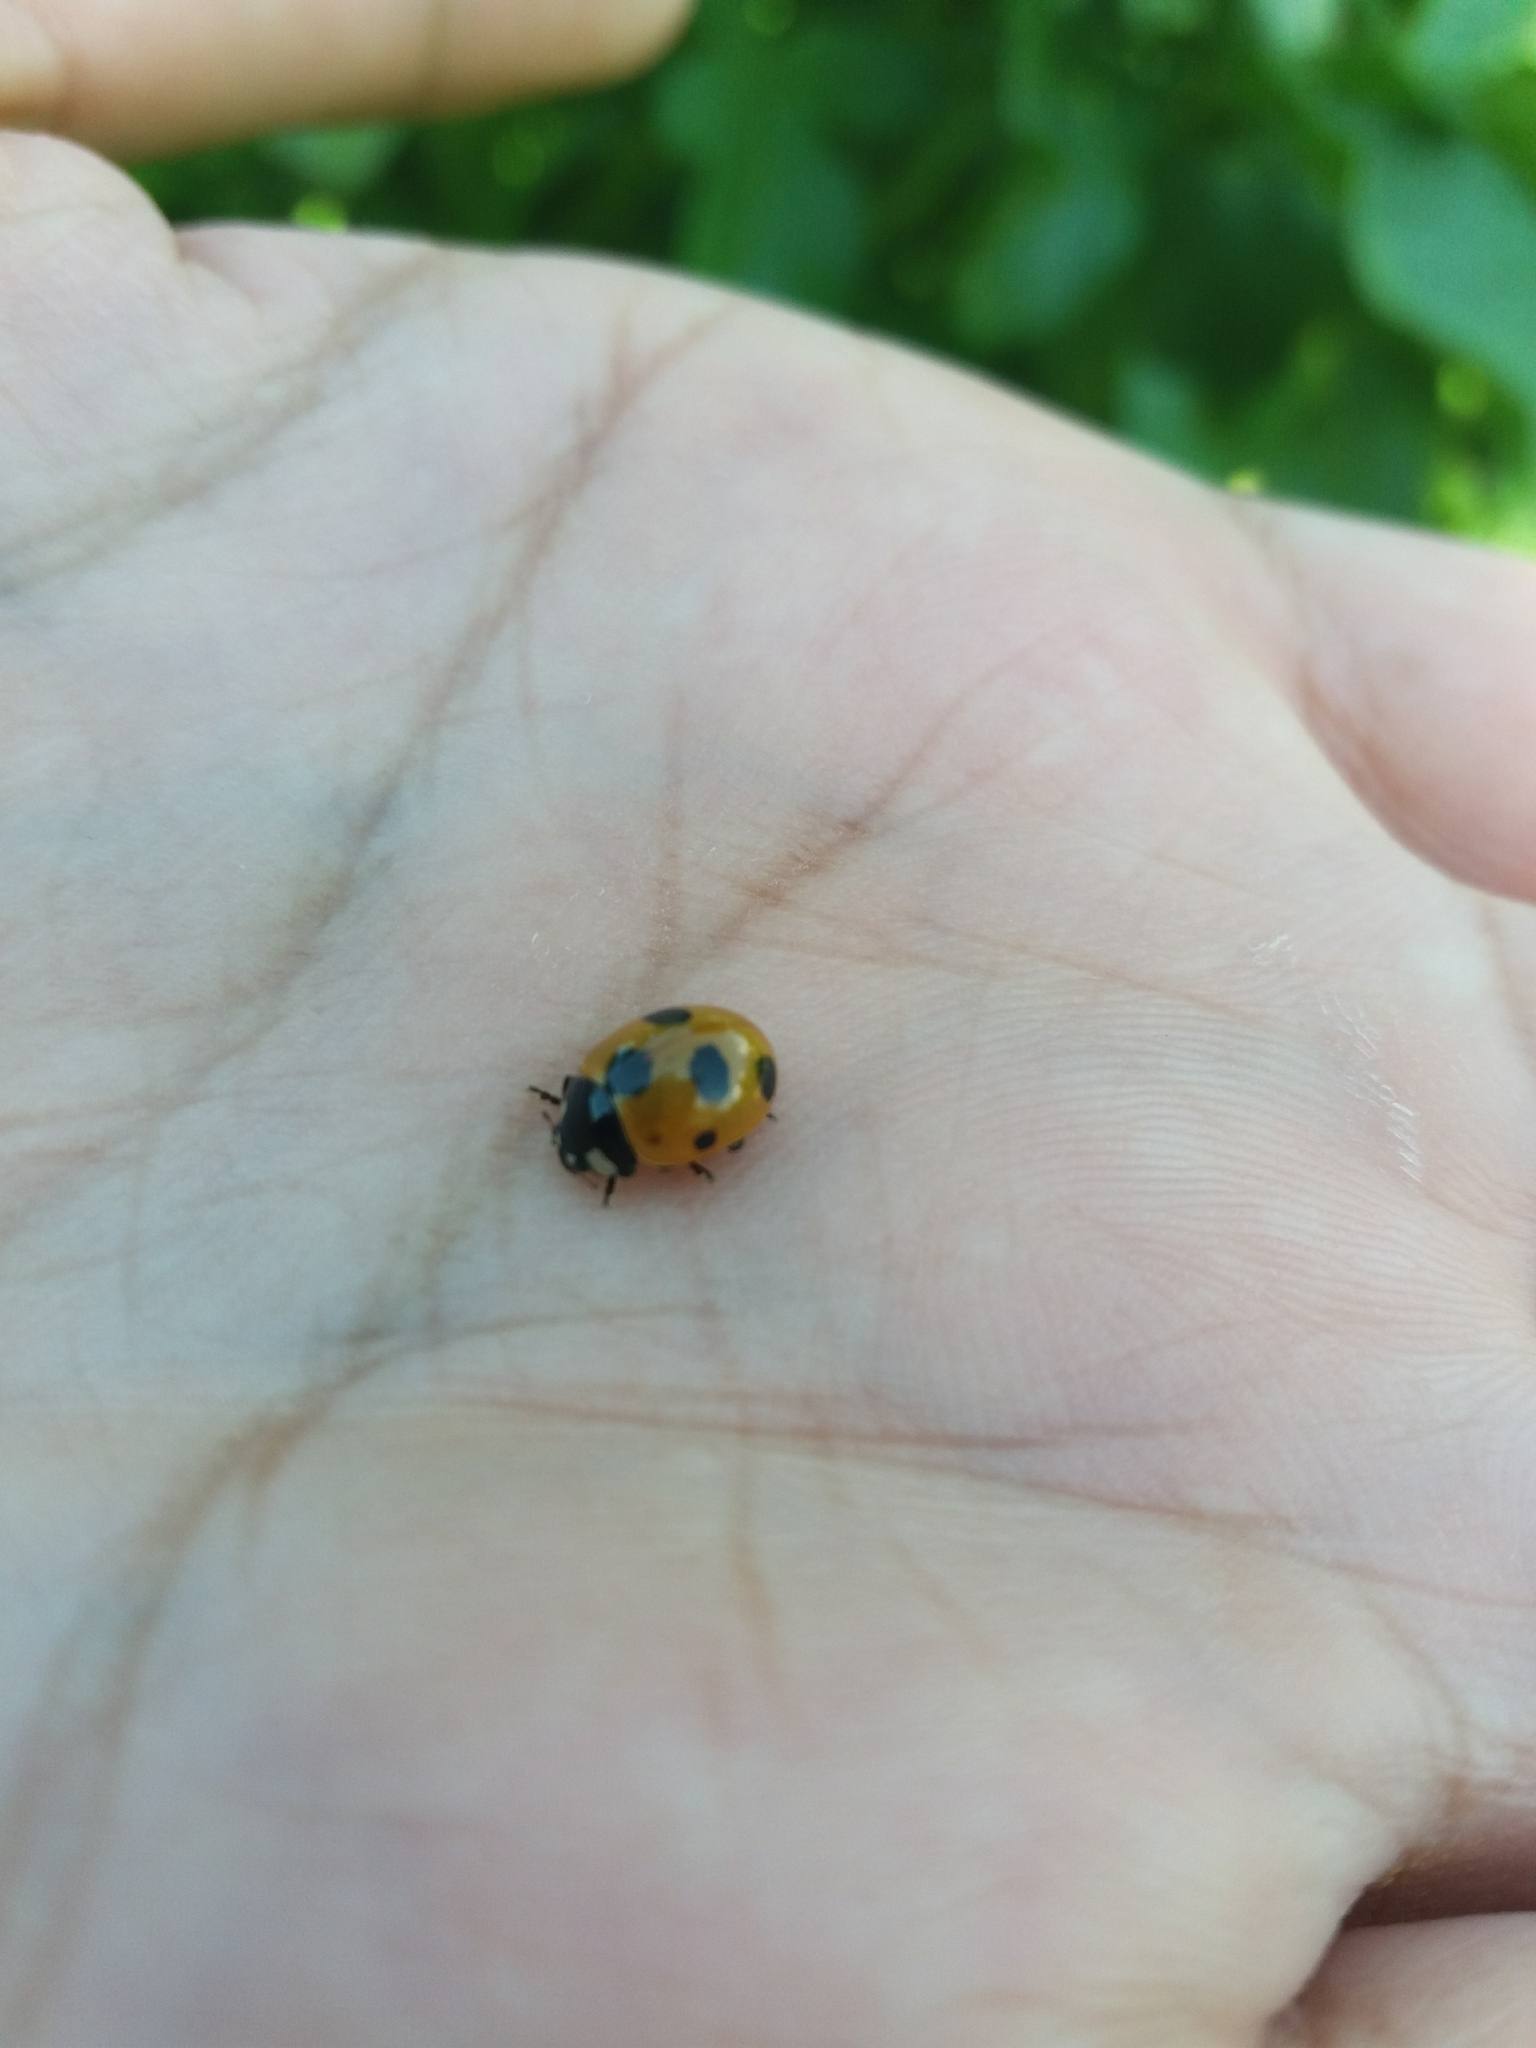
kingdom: Animalia
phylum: Arthropoda
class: Insecta
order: Coleoptera
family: Coccinellidae
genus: Coccinella
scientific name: Coccinella magnifica
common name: Scarce 7-spot ladybird
